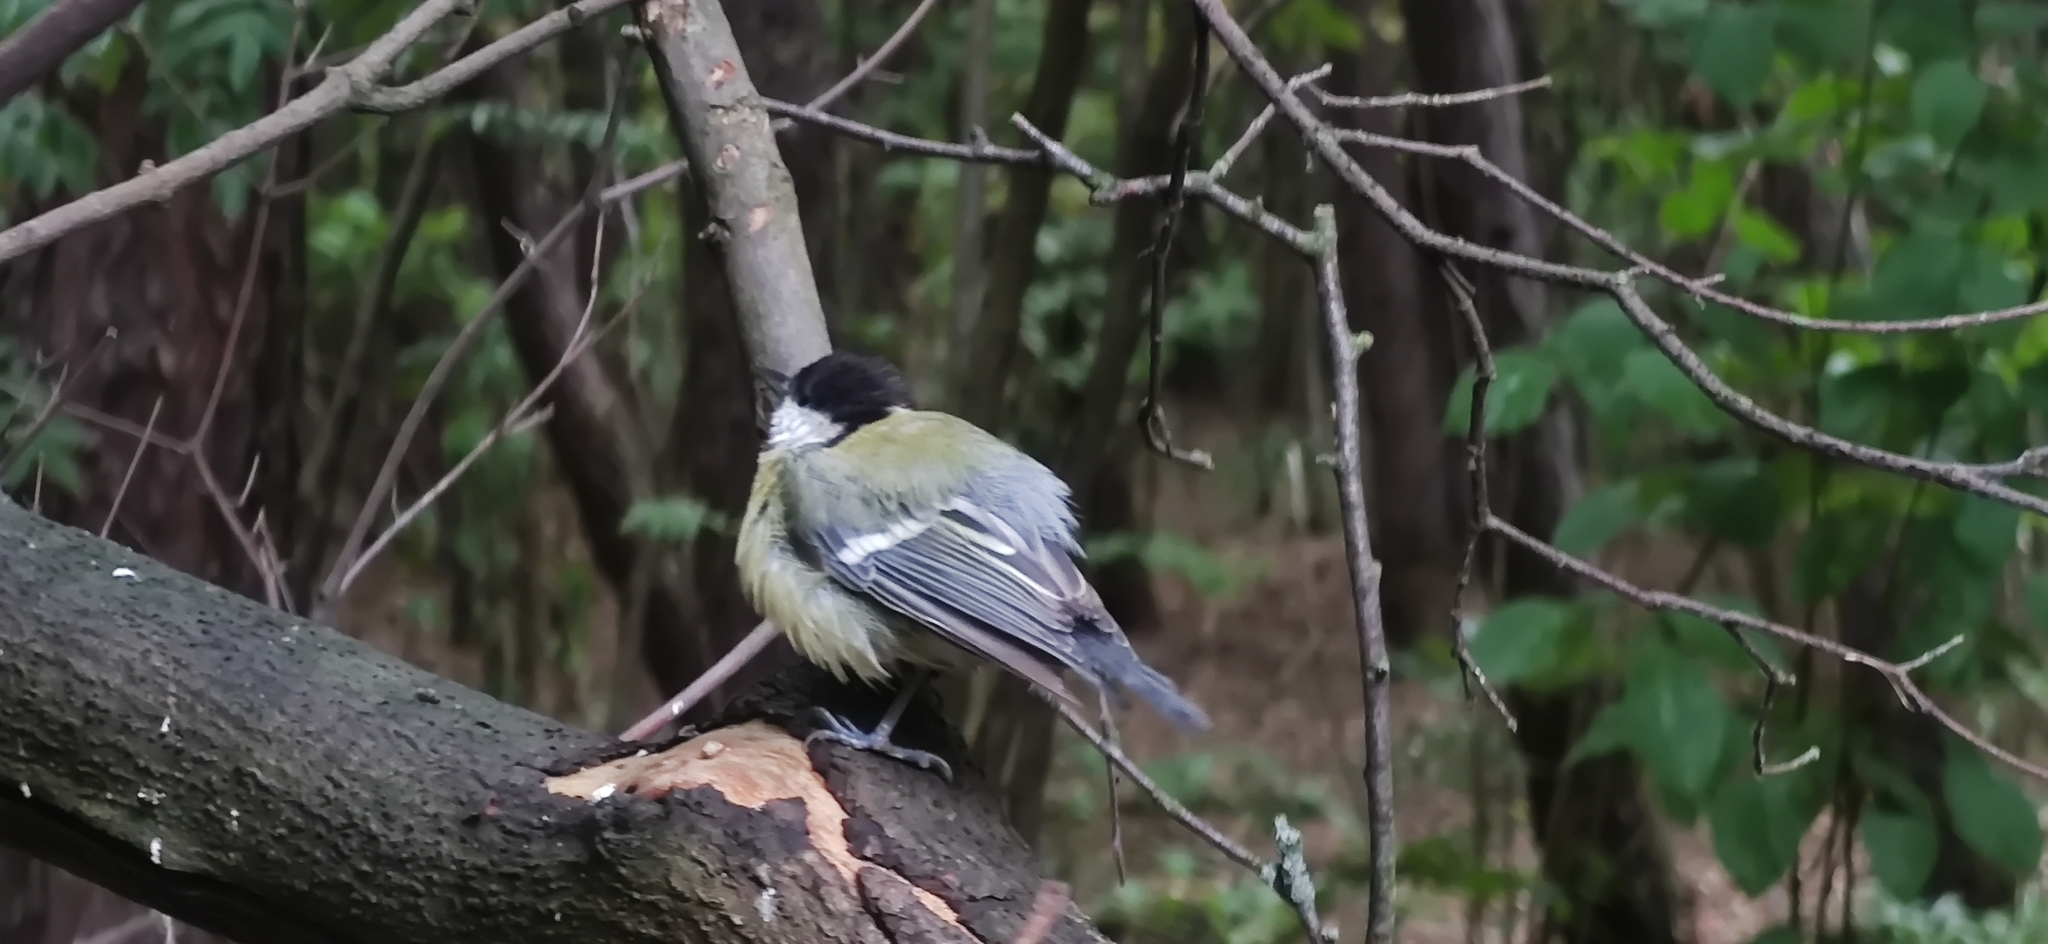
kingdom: Animalia
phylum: Chordata
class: Aves
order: Passeriformes
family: Paridae
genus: Parus
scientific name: Parus major
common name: Great tit
